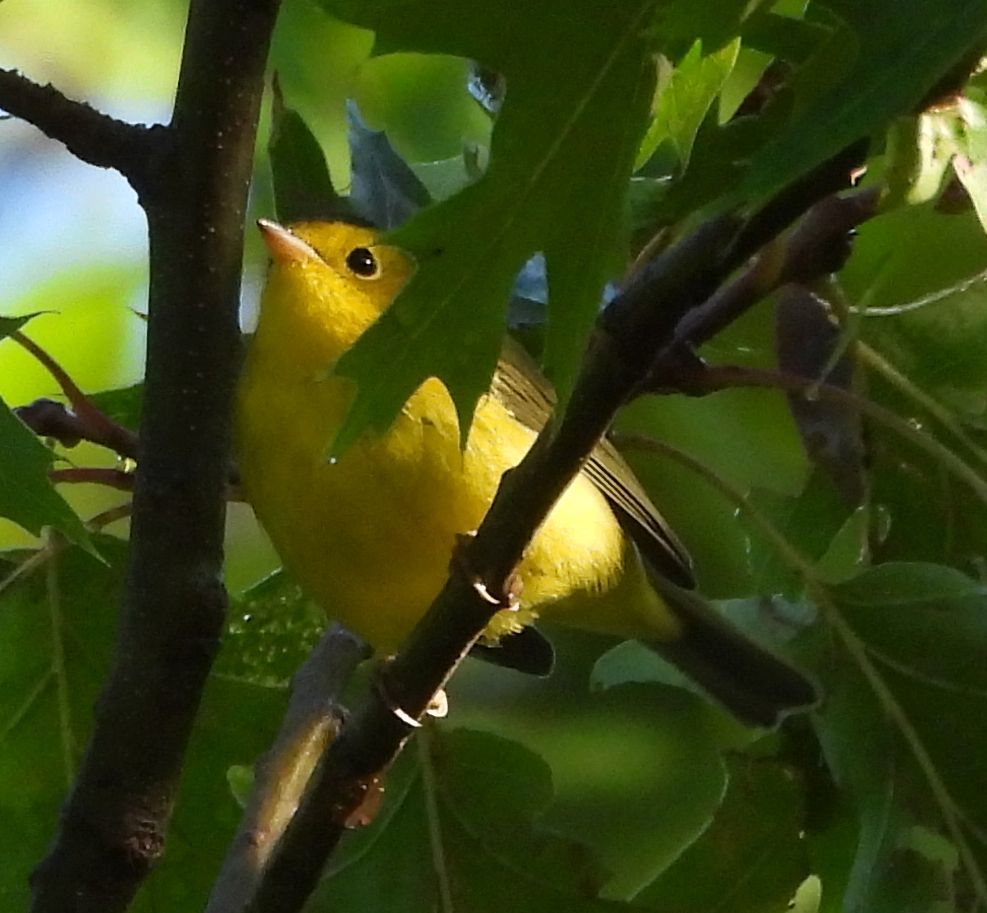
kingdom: Animalia
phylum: Chordata
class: Aves
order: Passeriformes
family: Parulidae
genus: Cardellina
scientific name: Cardellina pusilla
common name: Wilson's warbler
